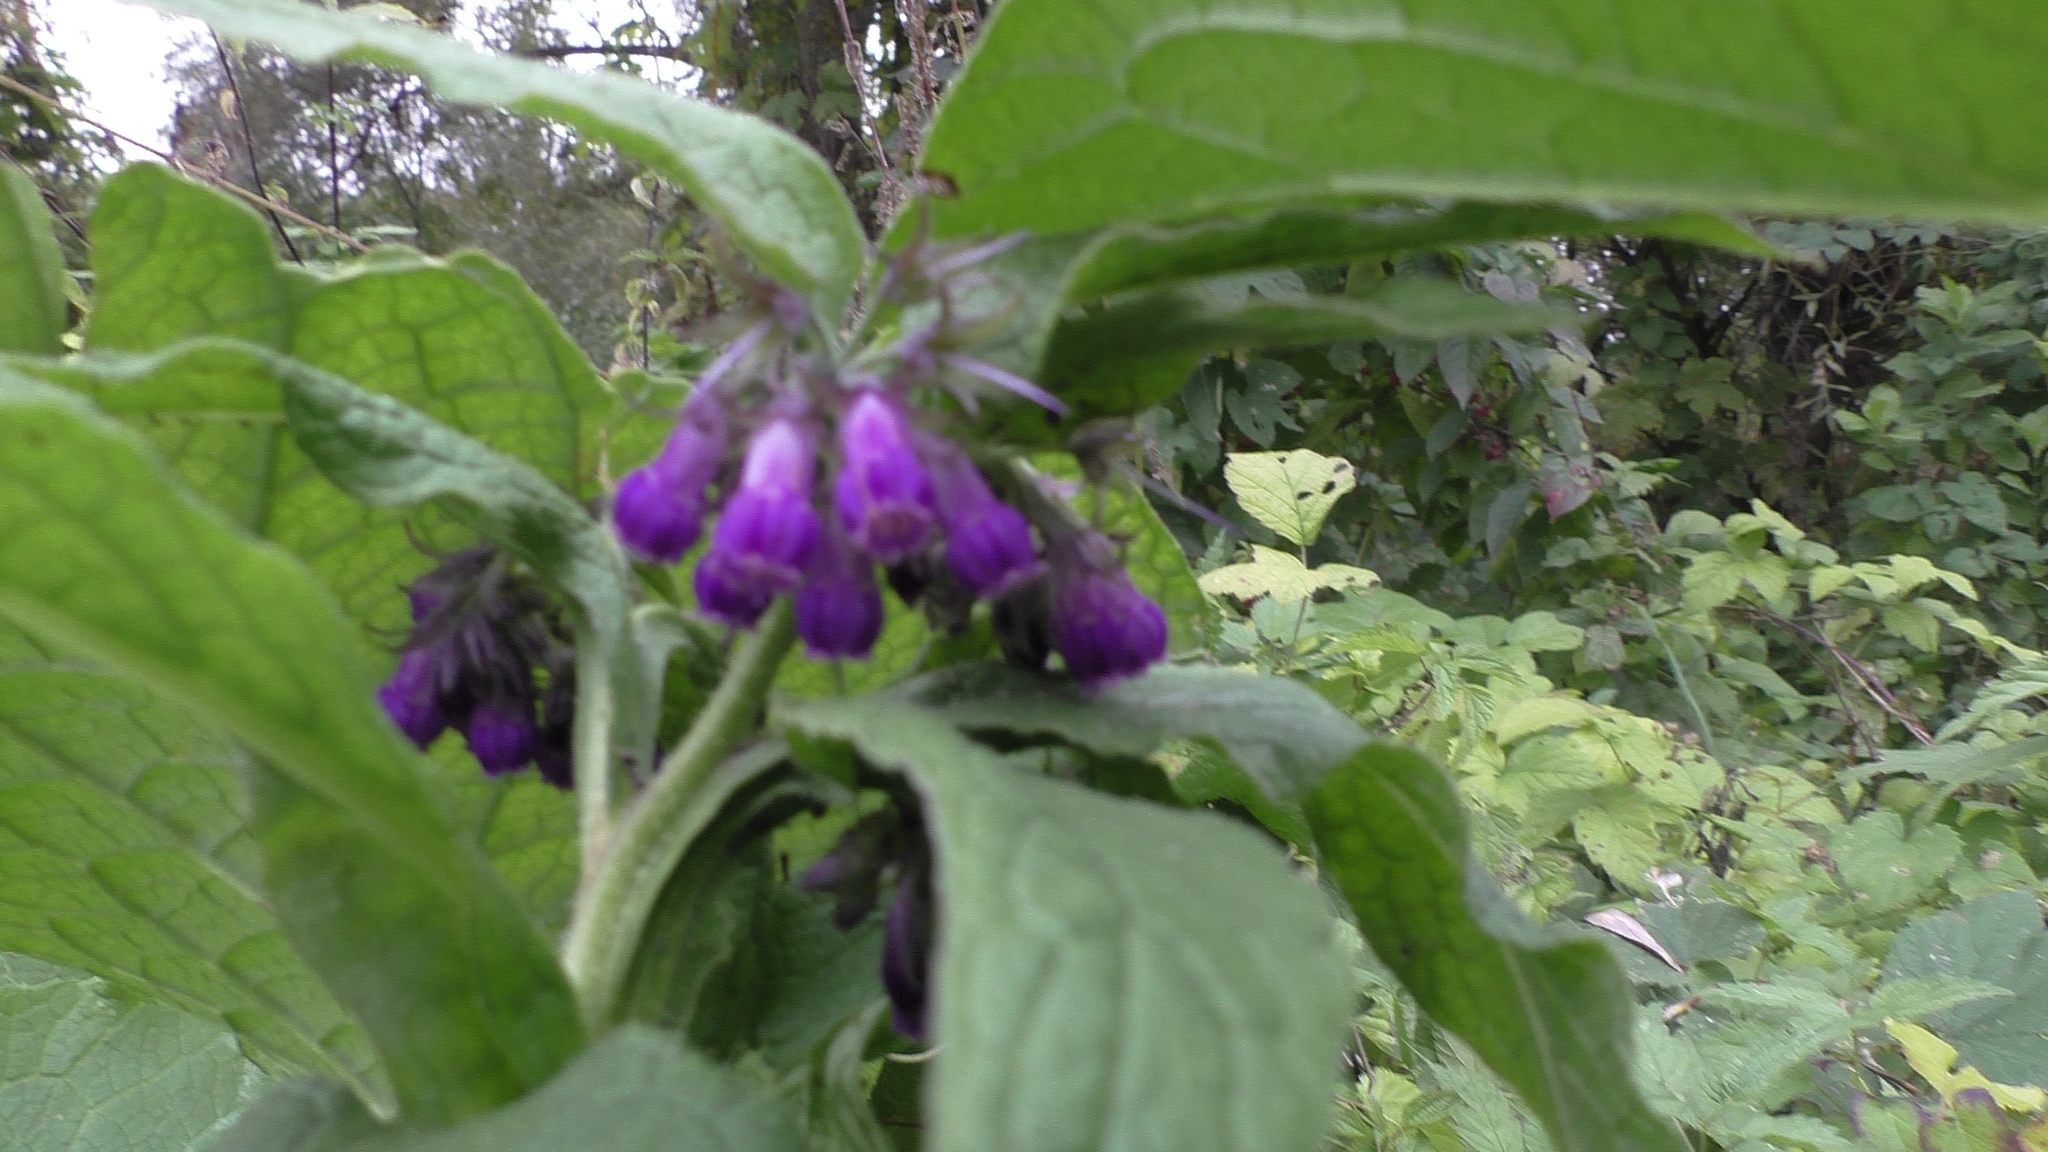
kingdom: Plantae
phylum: Tracheophyta
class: Magnoliopsida
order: Boraginales
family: Boraginaceae
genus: Symphytum
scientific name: Symphytum officinale
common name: Common comfrey
